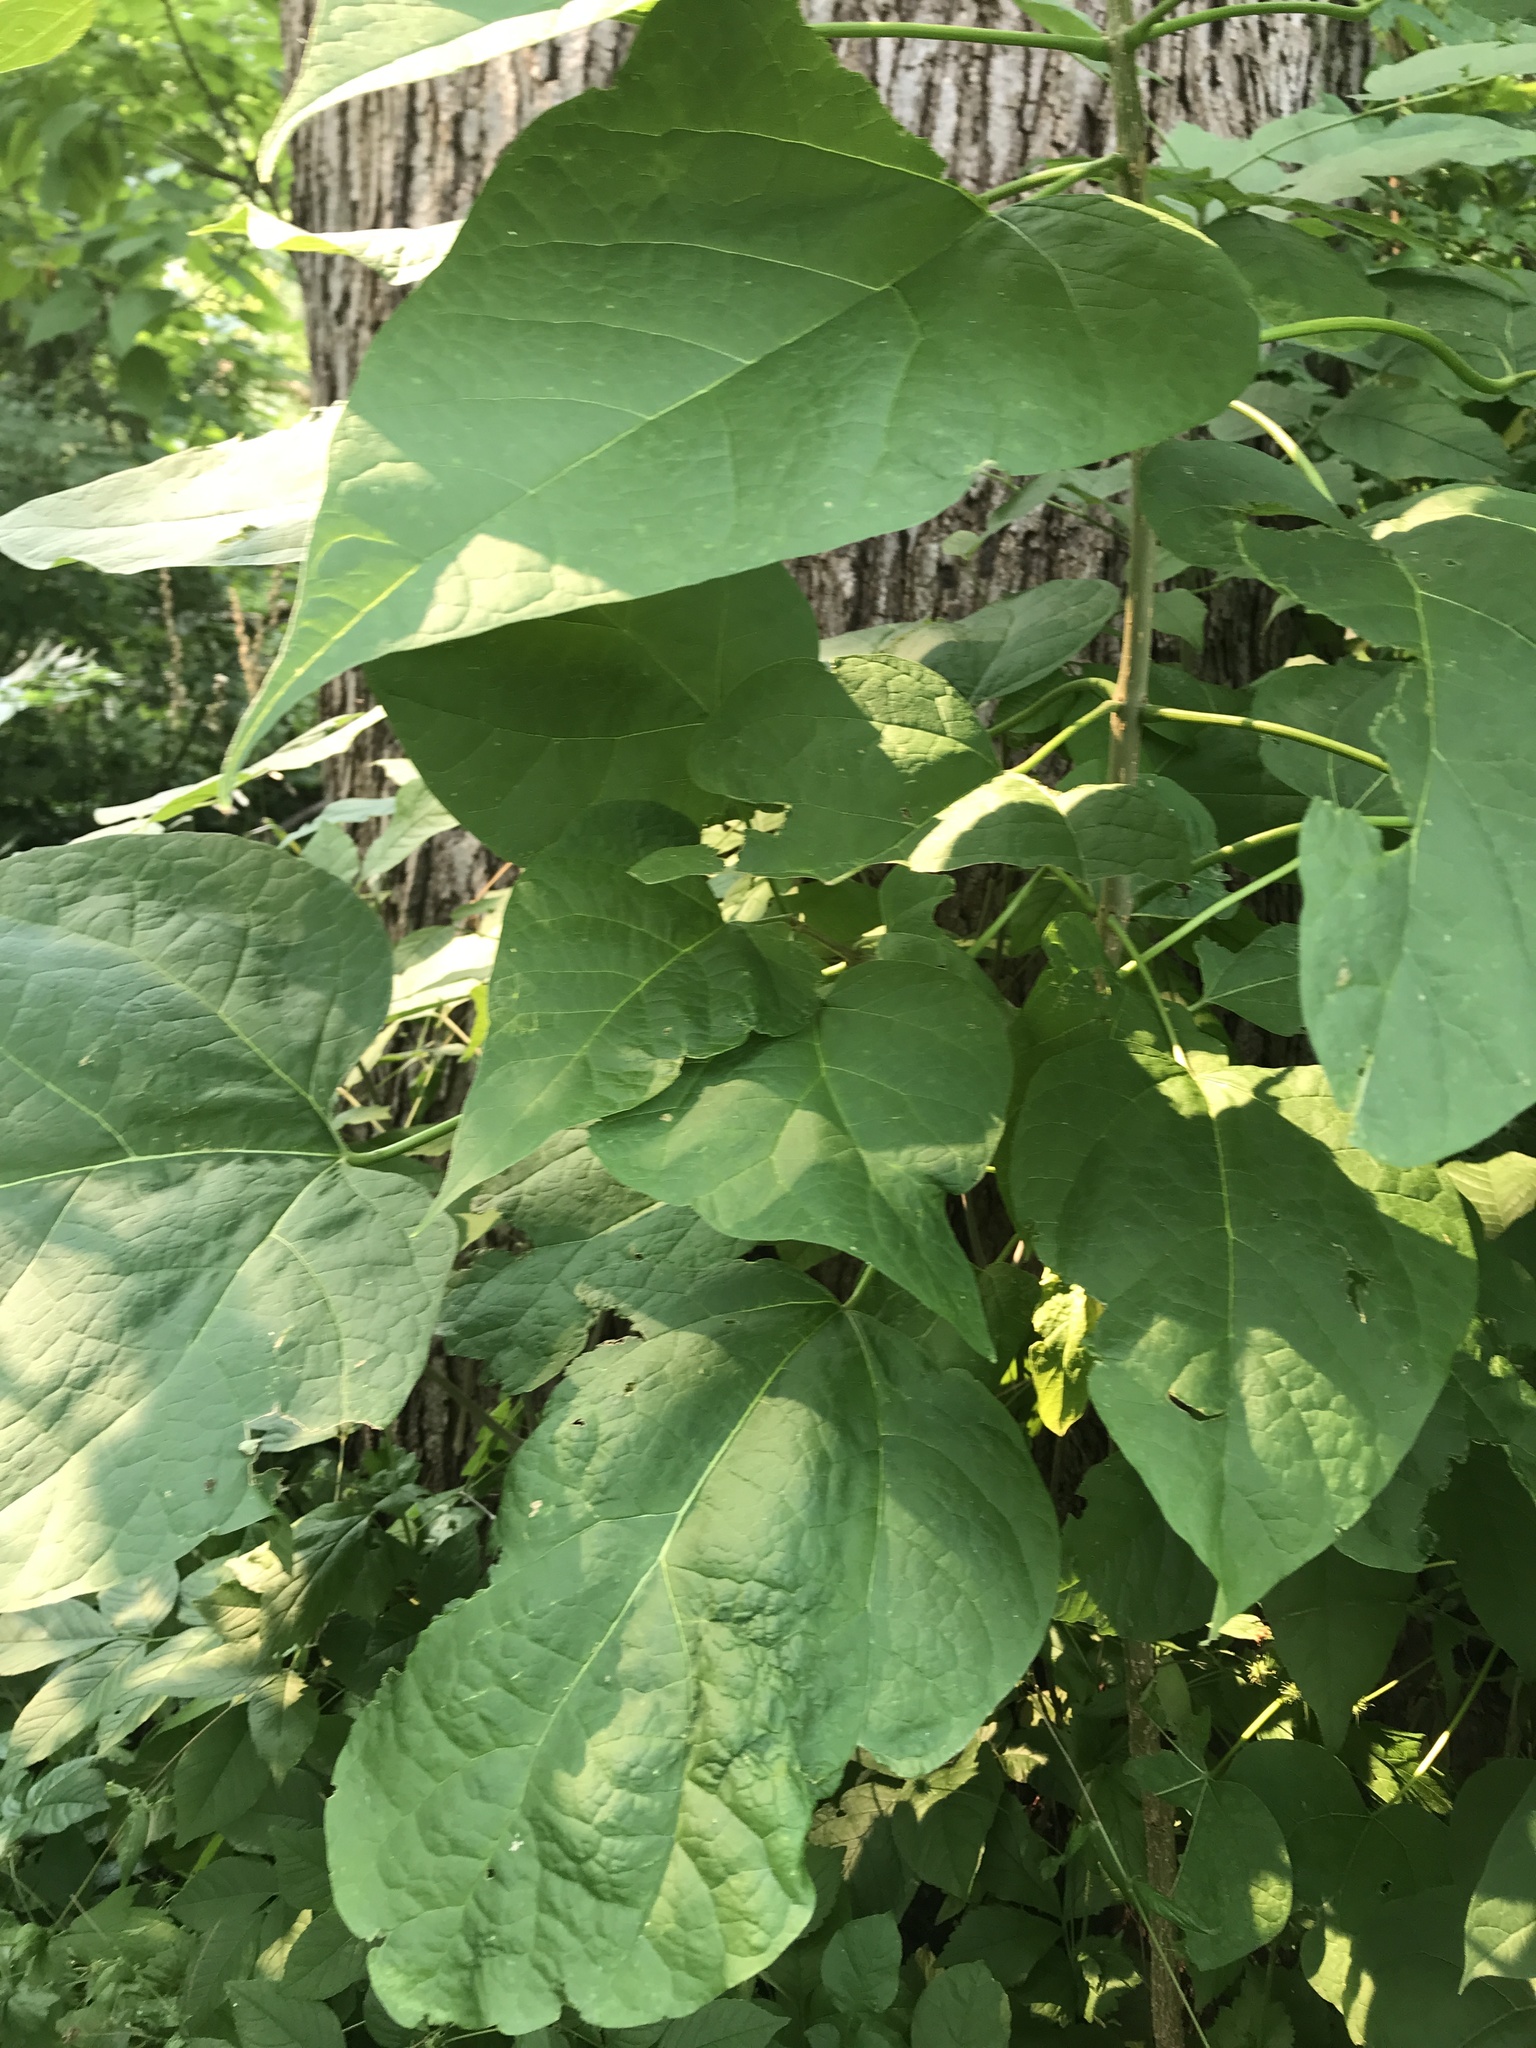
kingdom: Plantae
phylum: Tracheophyta
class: Magnoliopsida
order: Lamiales
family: Bignoniaceae
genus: Catalpa
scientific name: Catalpa speciosa
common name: Northern catalpa
